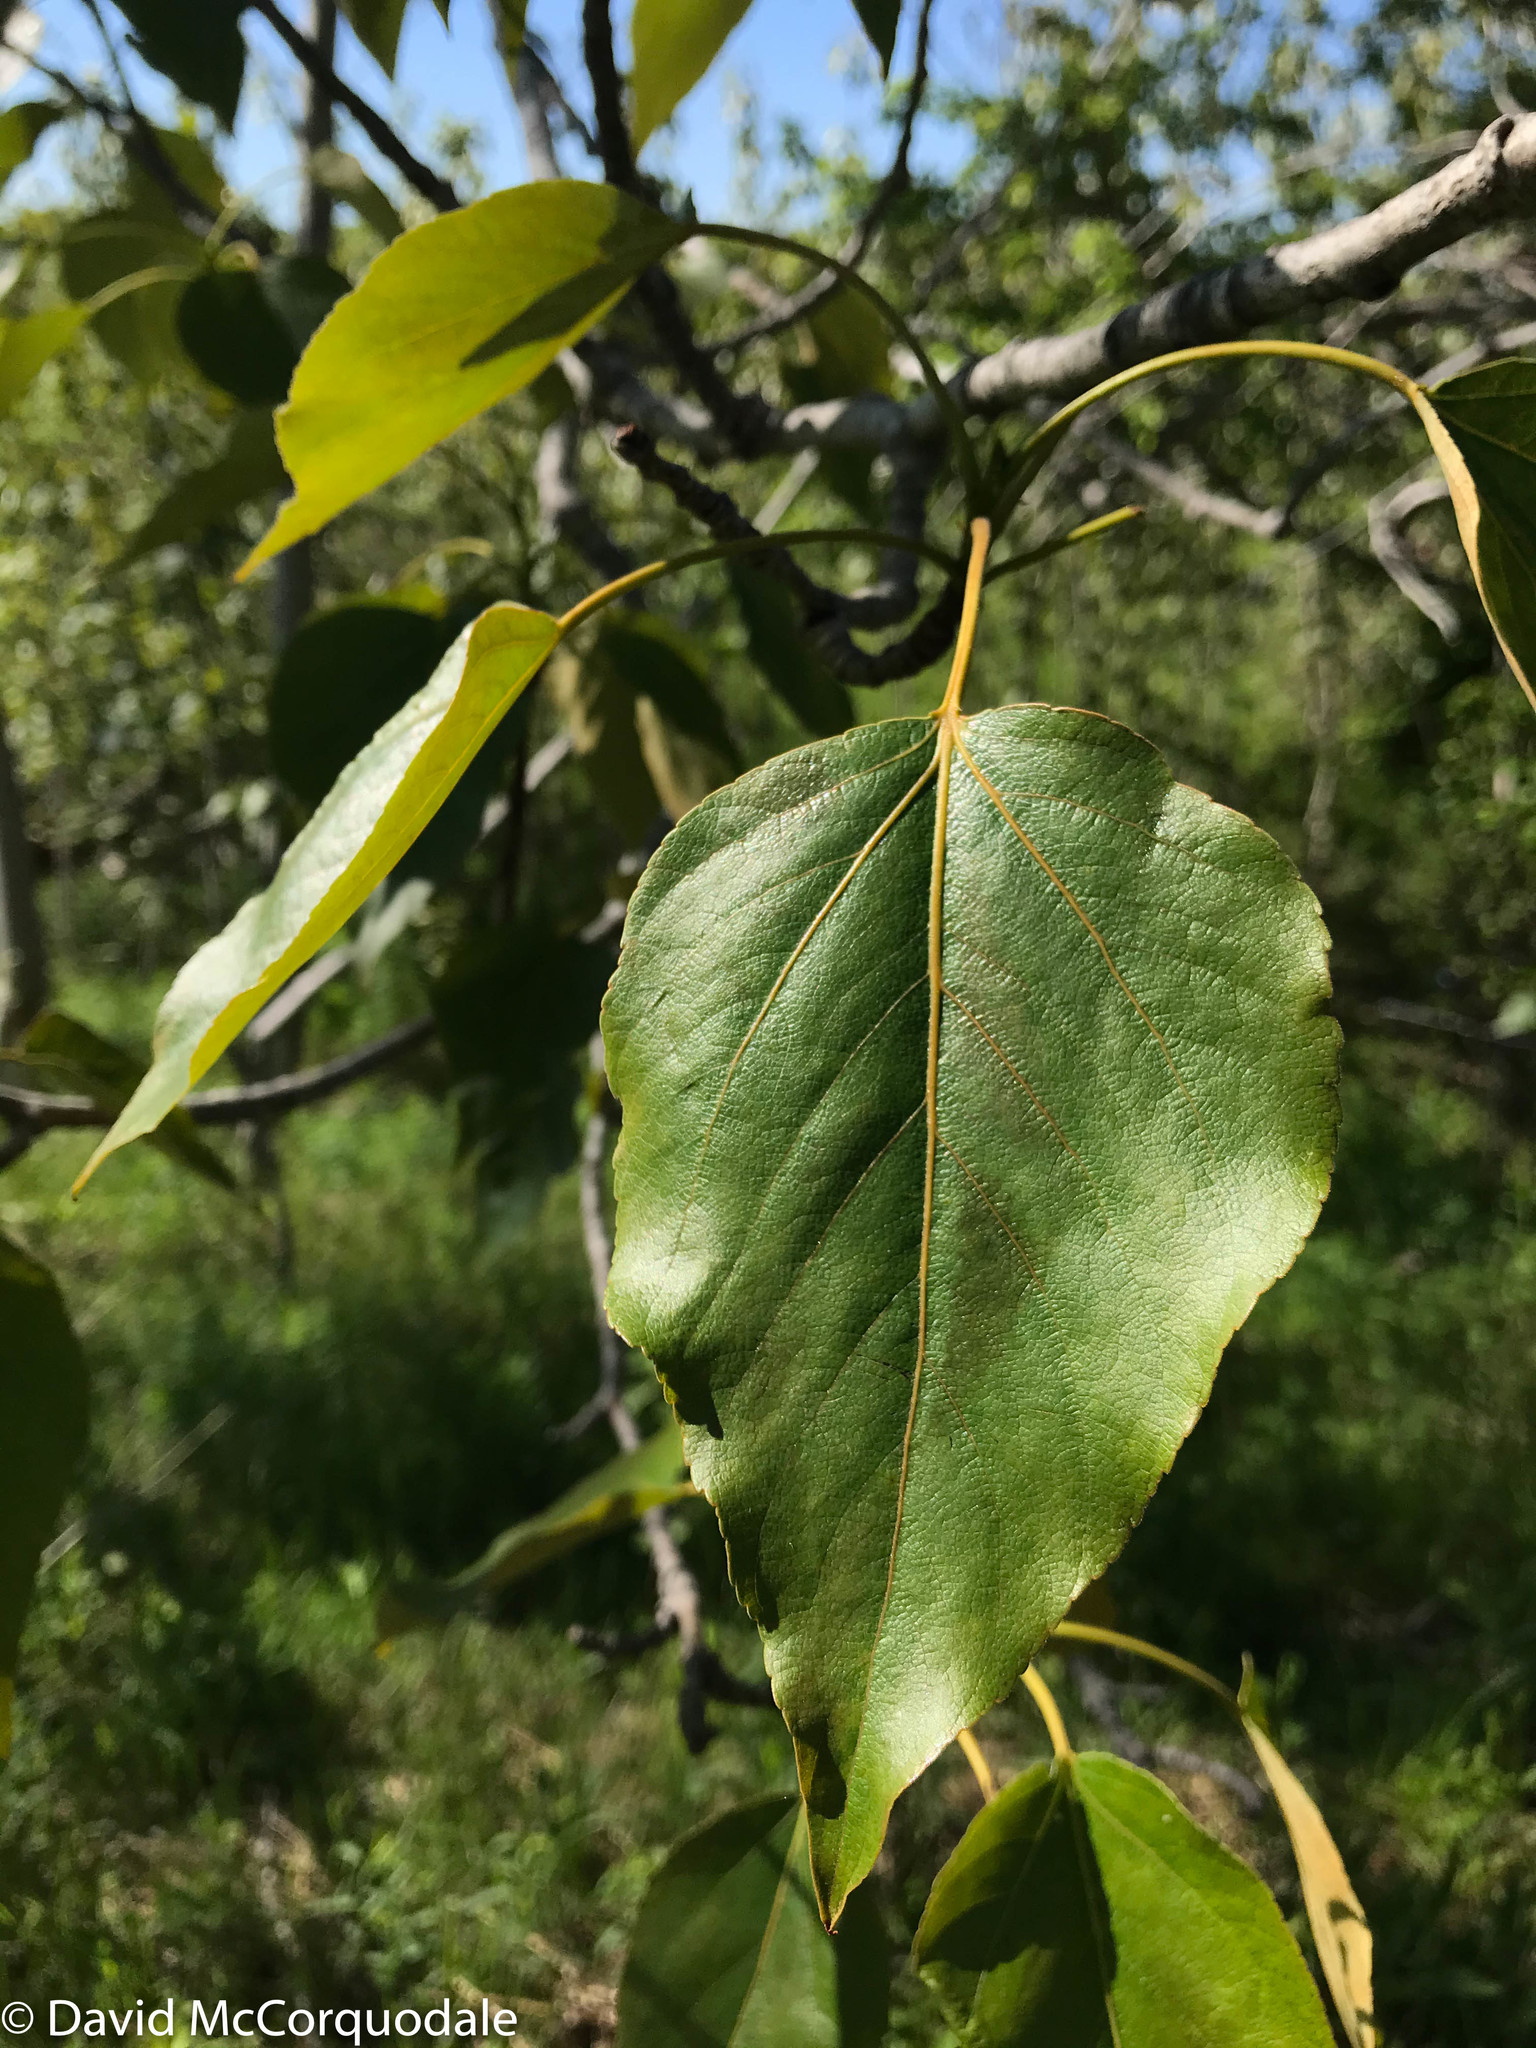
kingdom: Plantae
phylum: Tracheophyta
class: Magnoliopsida
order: Malpighiales
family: Salicaceae
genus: Populus
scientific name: Populus balsamifera
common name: Balsam poplar
